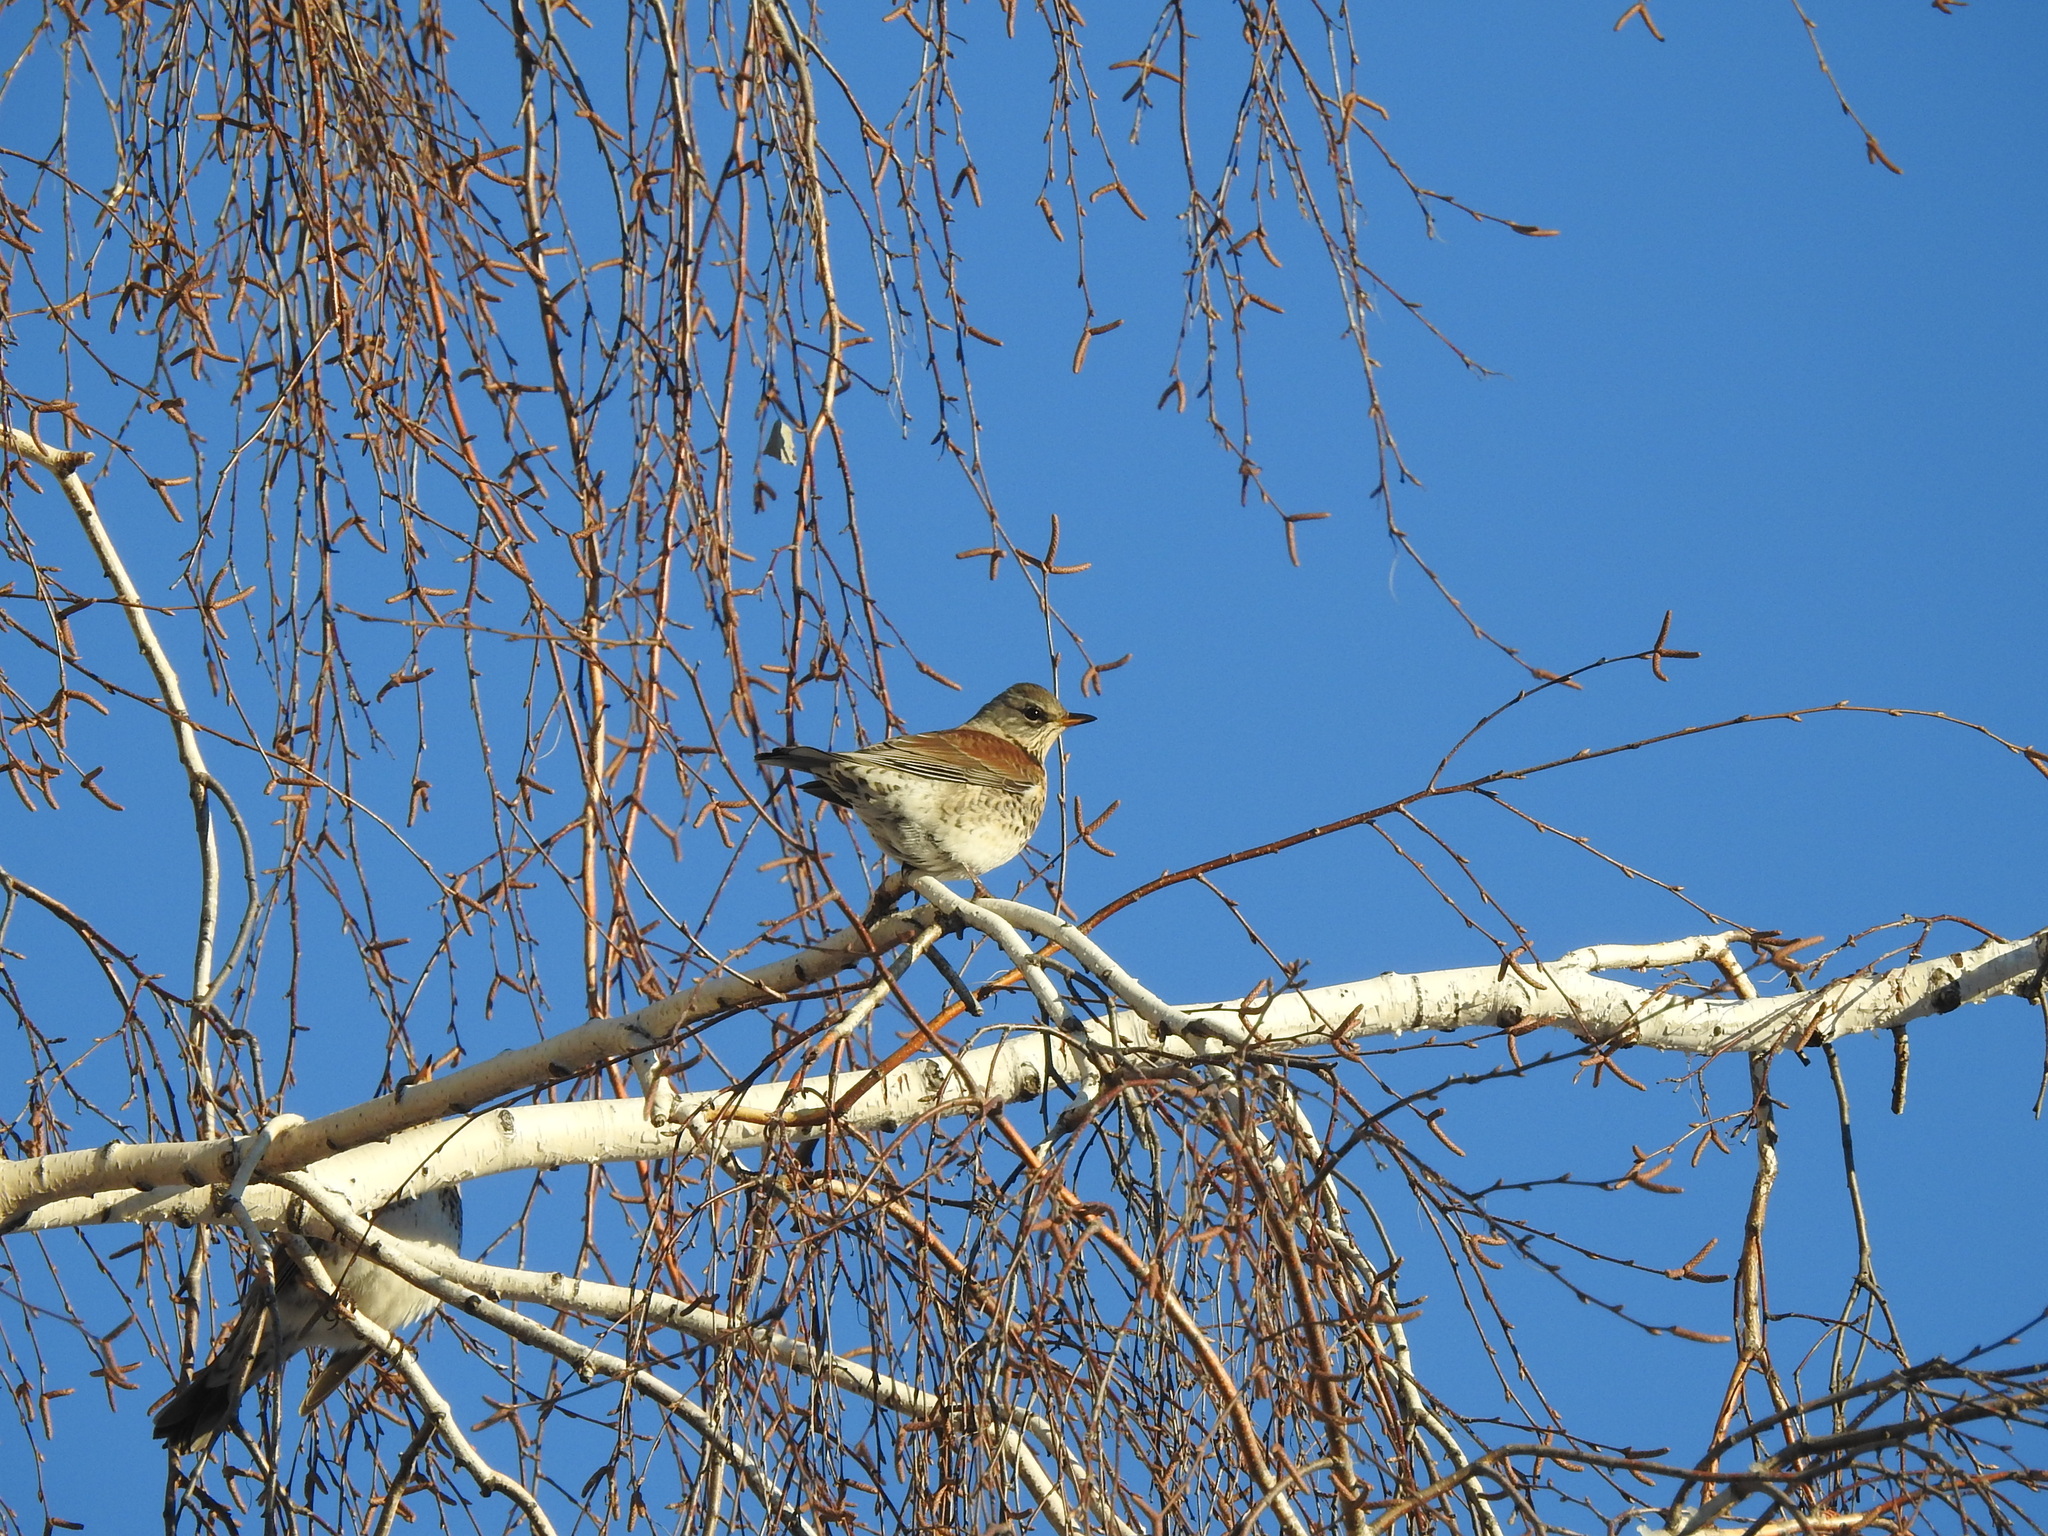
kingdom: Animalia
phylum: Chordata
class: Aves
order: Passeriformes
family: Turdidae
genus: Turdus
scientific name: Turdus pilaris
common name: Fieldfare
